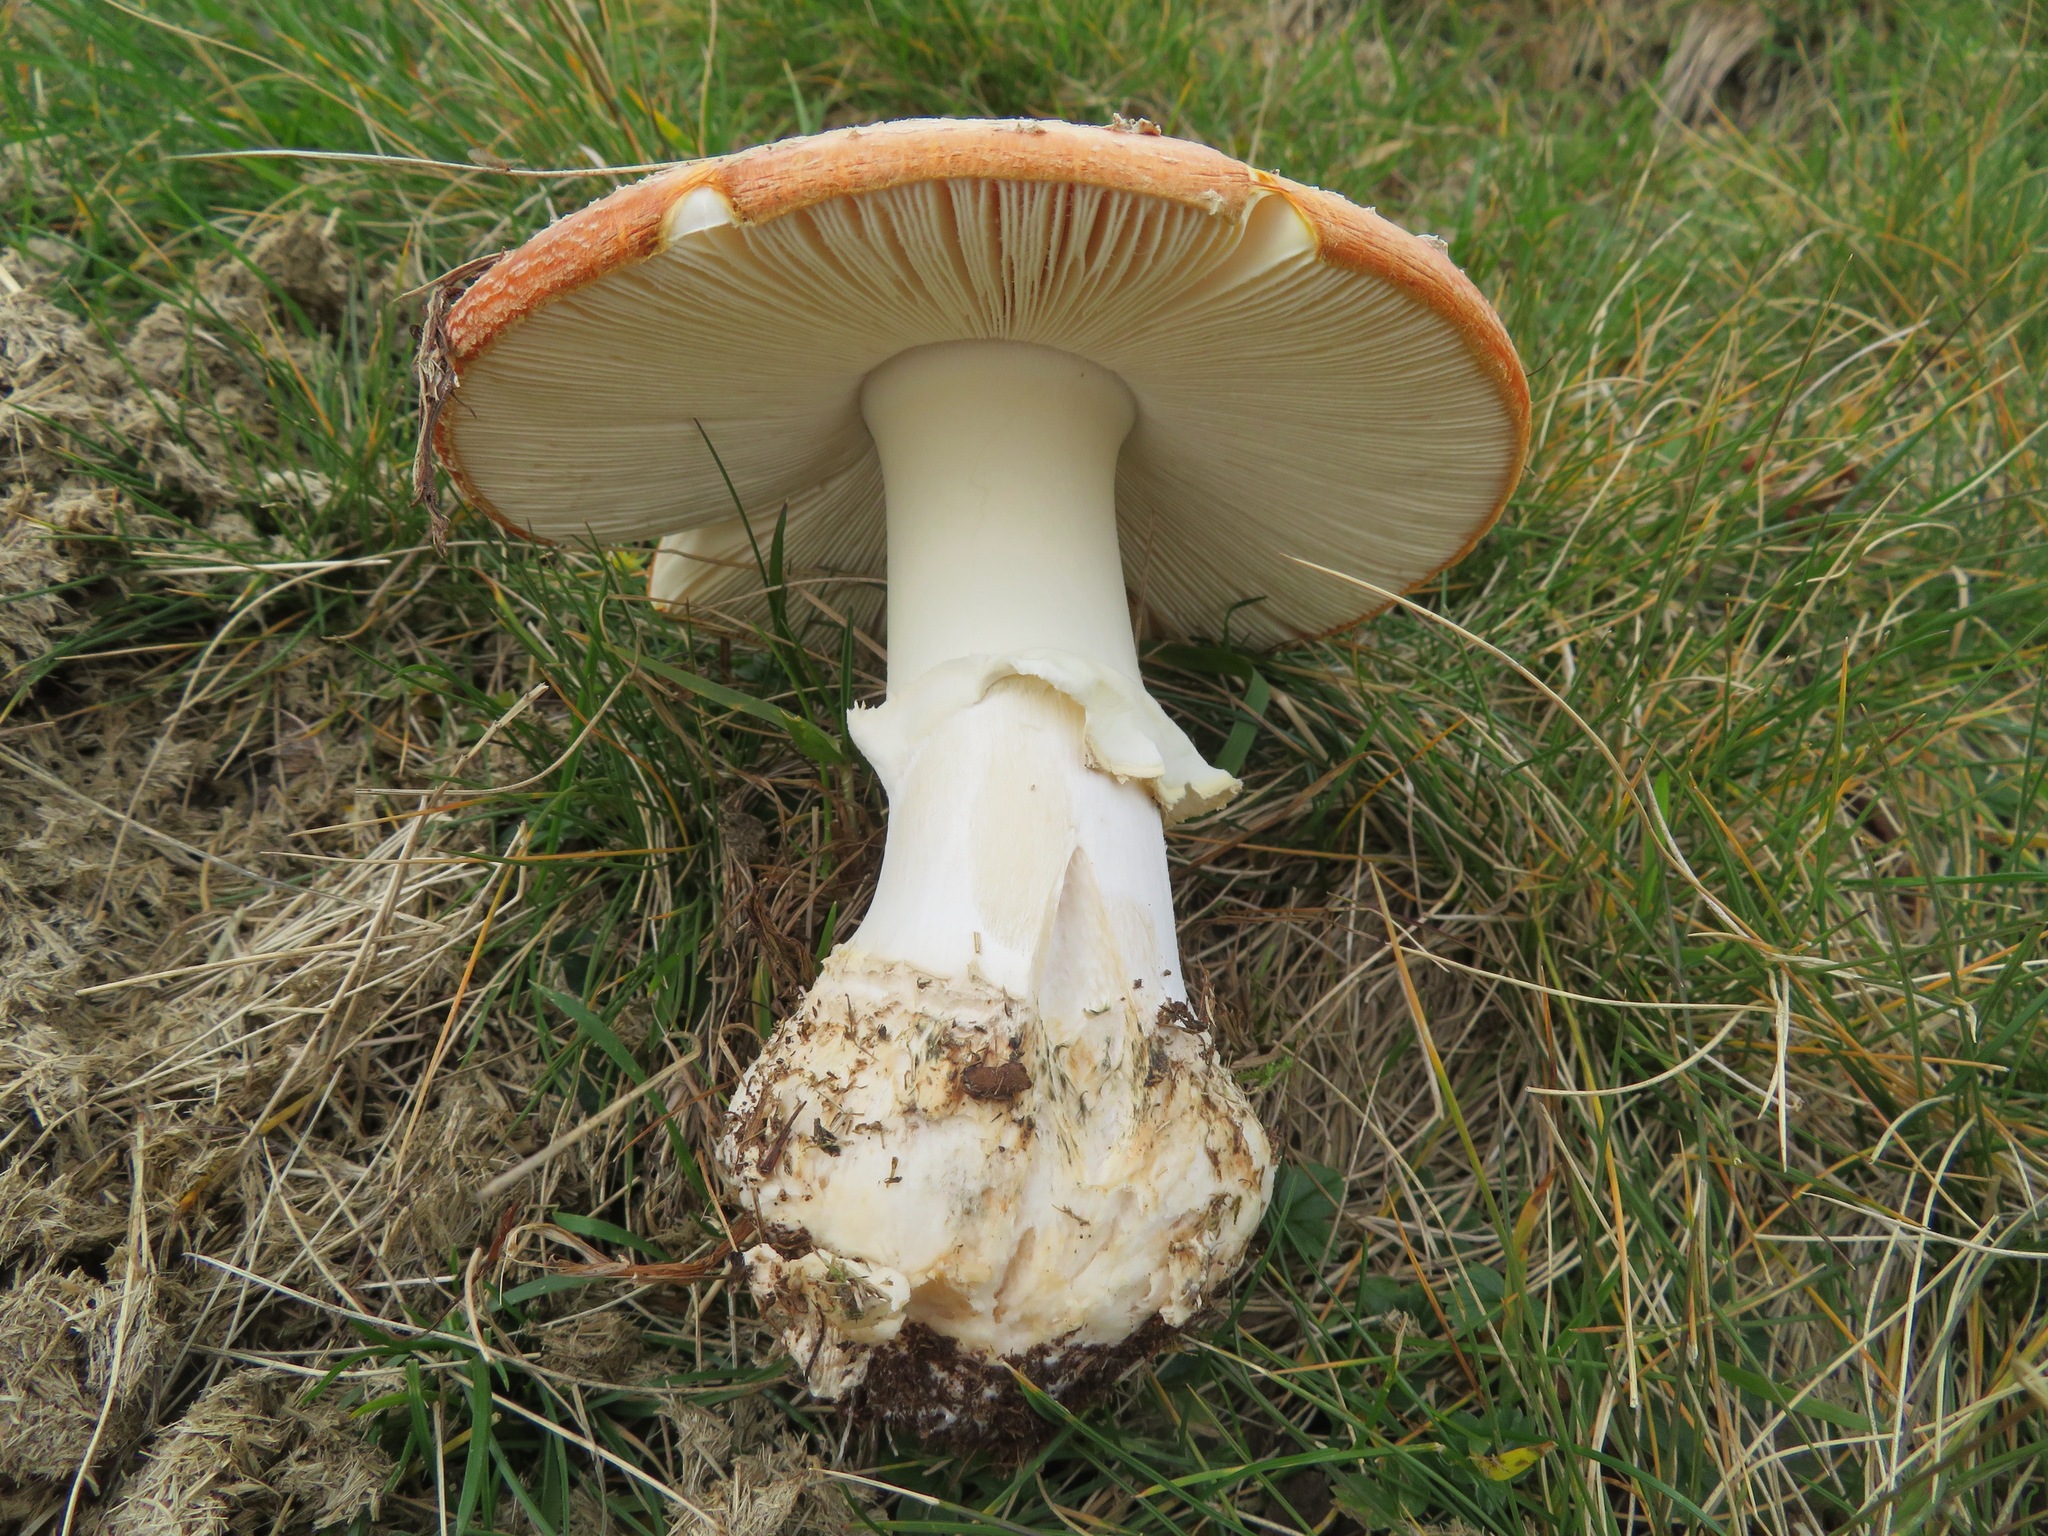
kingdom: Fungi
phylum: Basidiomycota
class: Agaricomycetes
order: Agaricales
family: Amanitaceae
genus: Amanita
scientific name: Amanita muscaria
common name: Fly agaric
